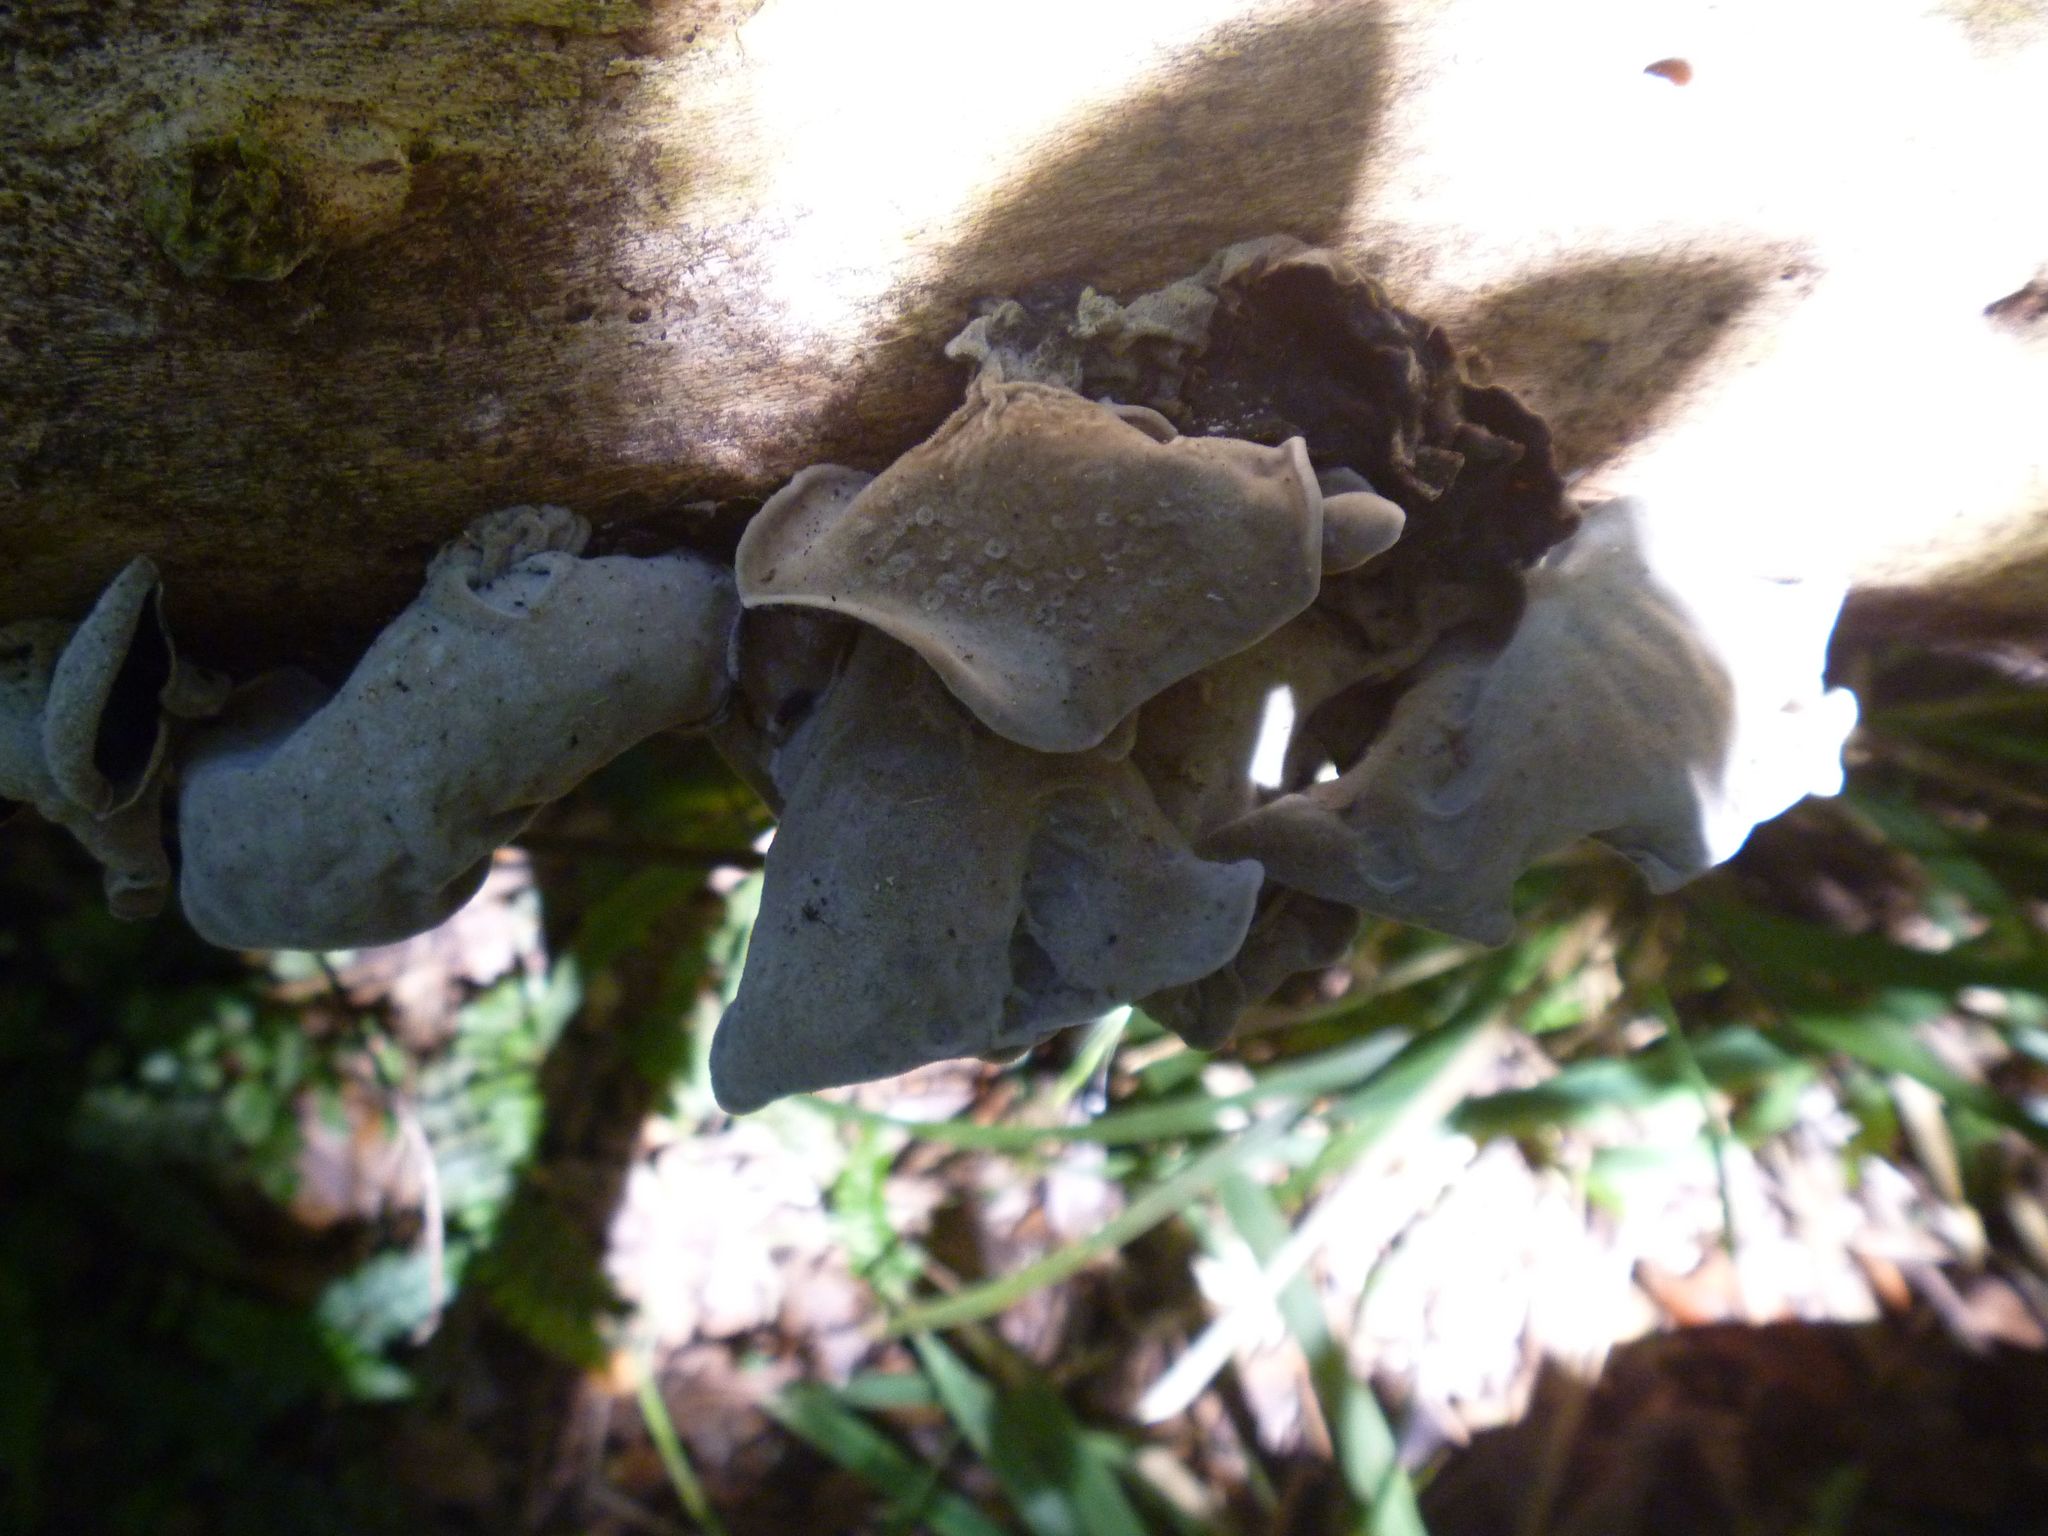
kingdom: Fungi
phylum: Basidiomycota
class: Agaricomycetes
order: Auriculariales
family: Auriculariaceae
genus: Auricularia
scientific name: Auricularia cornea
